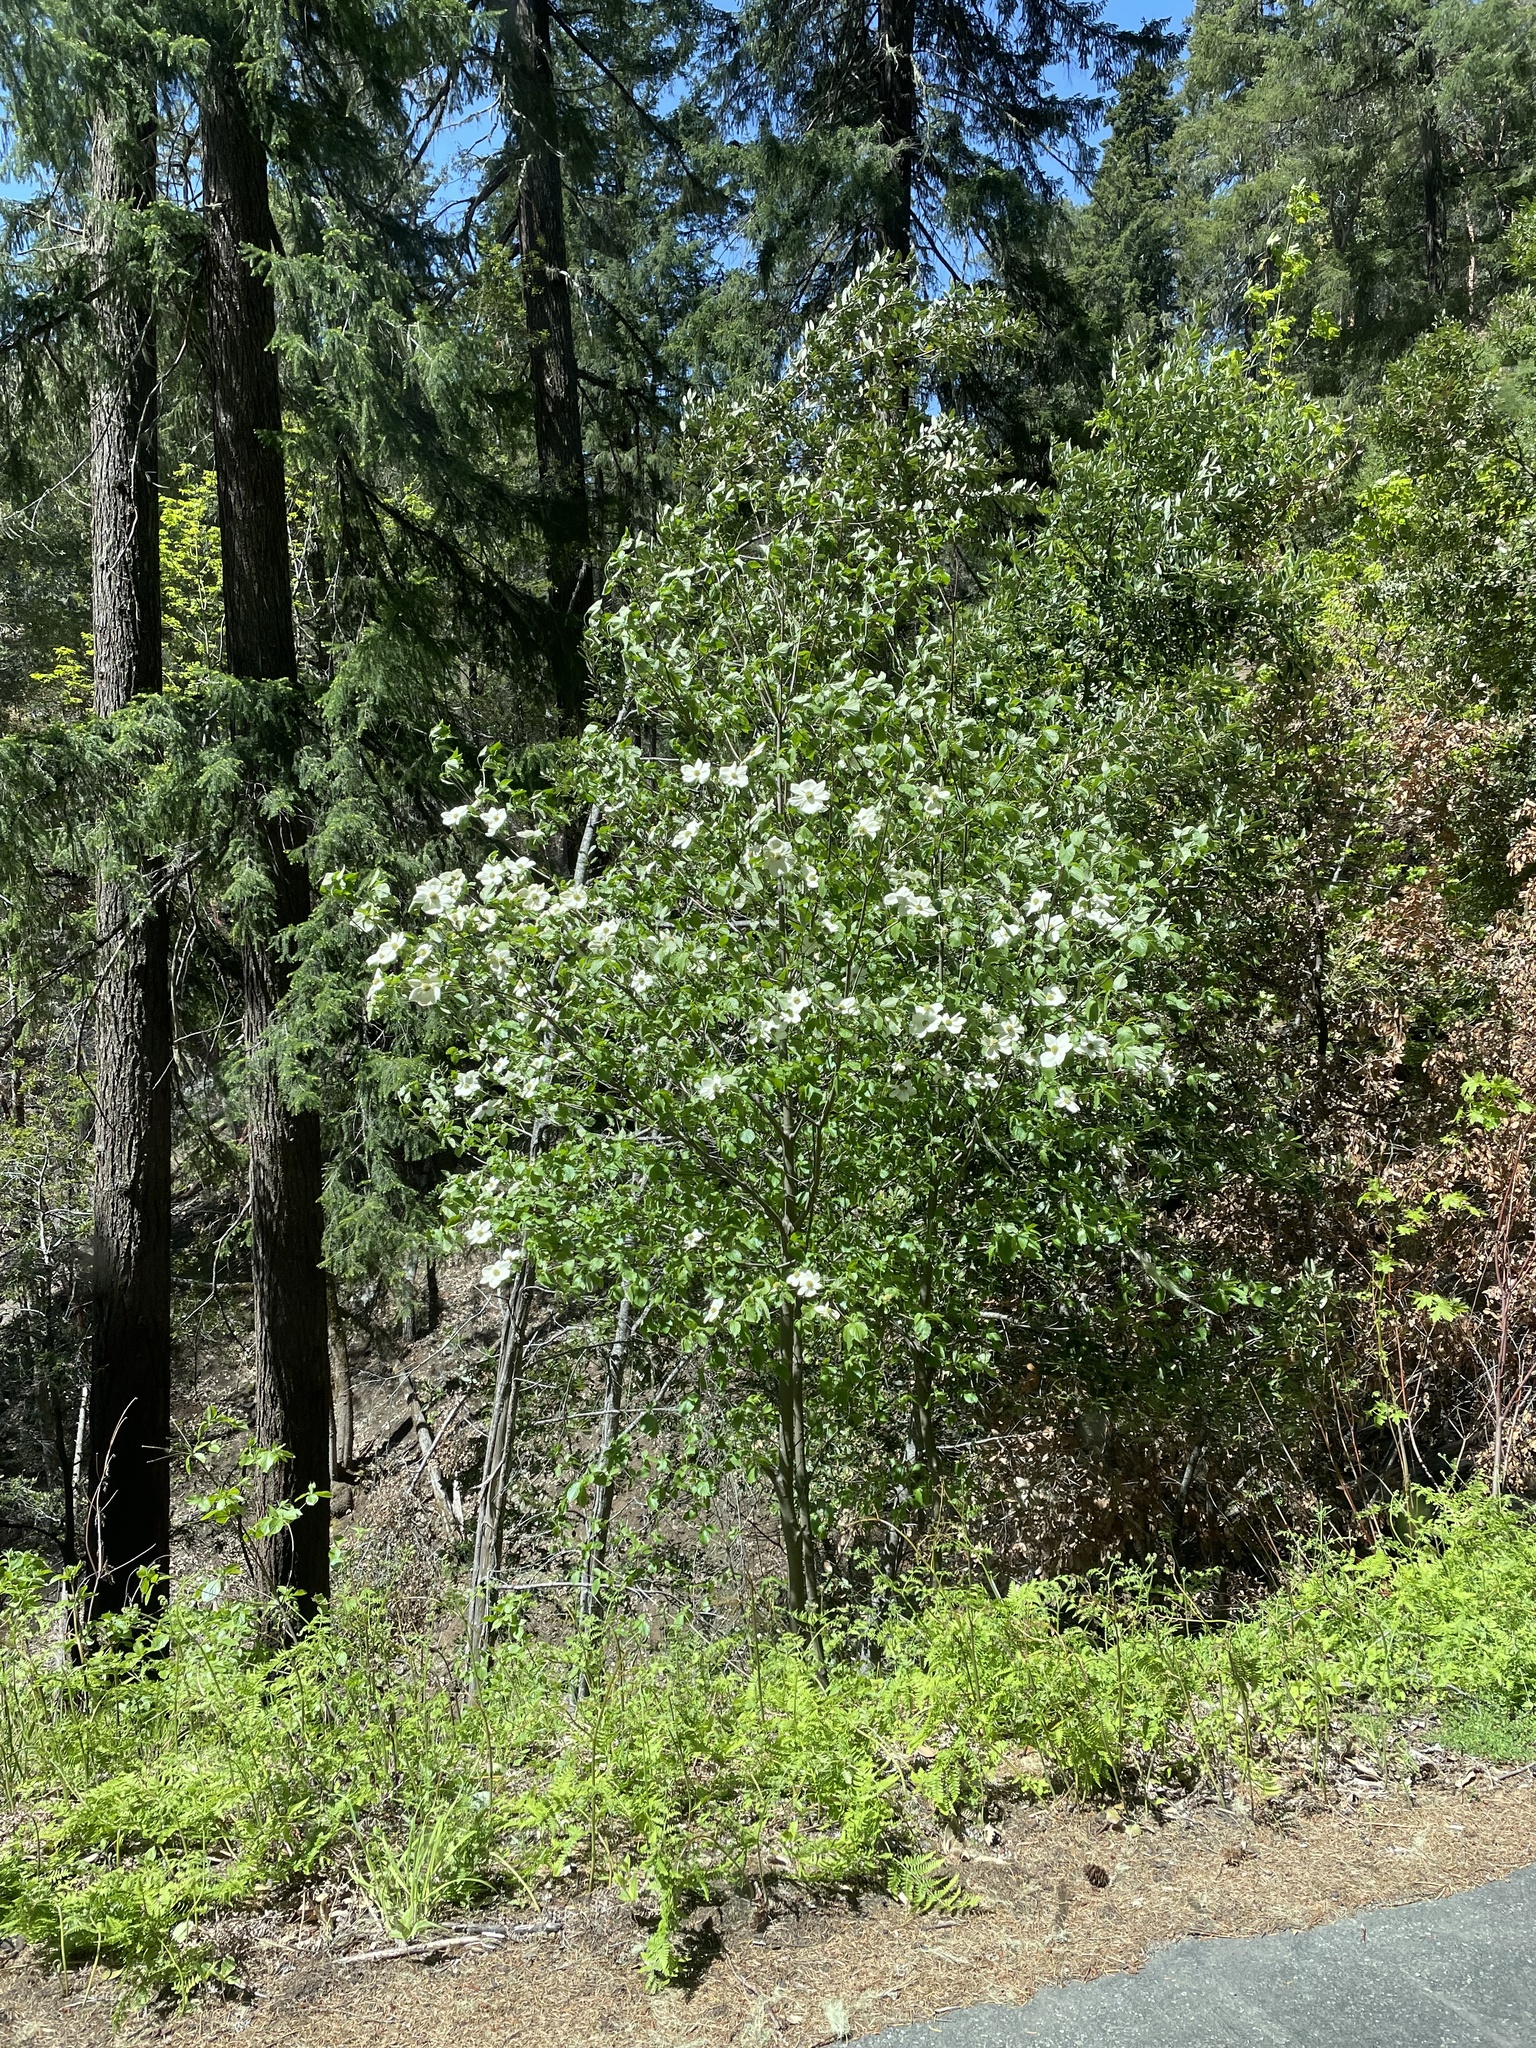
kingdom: Plantae
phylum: Tracheophyta
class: Magnoliopsida
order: Cornales
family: Cornaceae
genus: Cornus
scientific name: Cornus nuttallii
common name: Pacific dogwood
